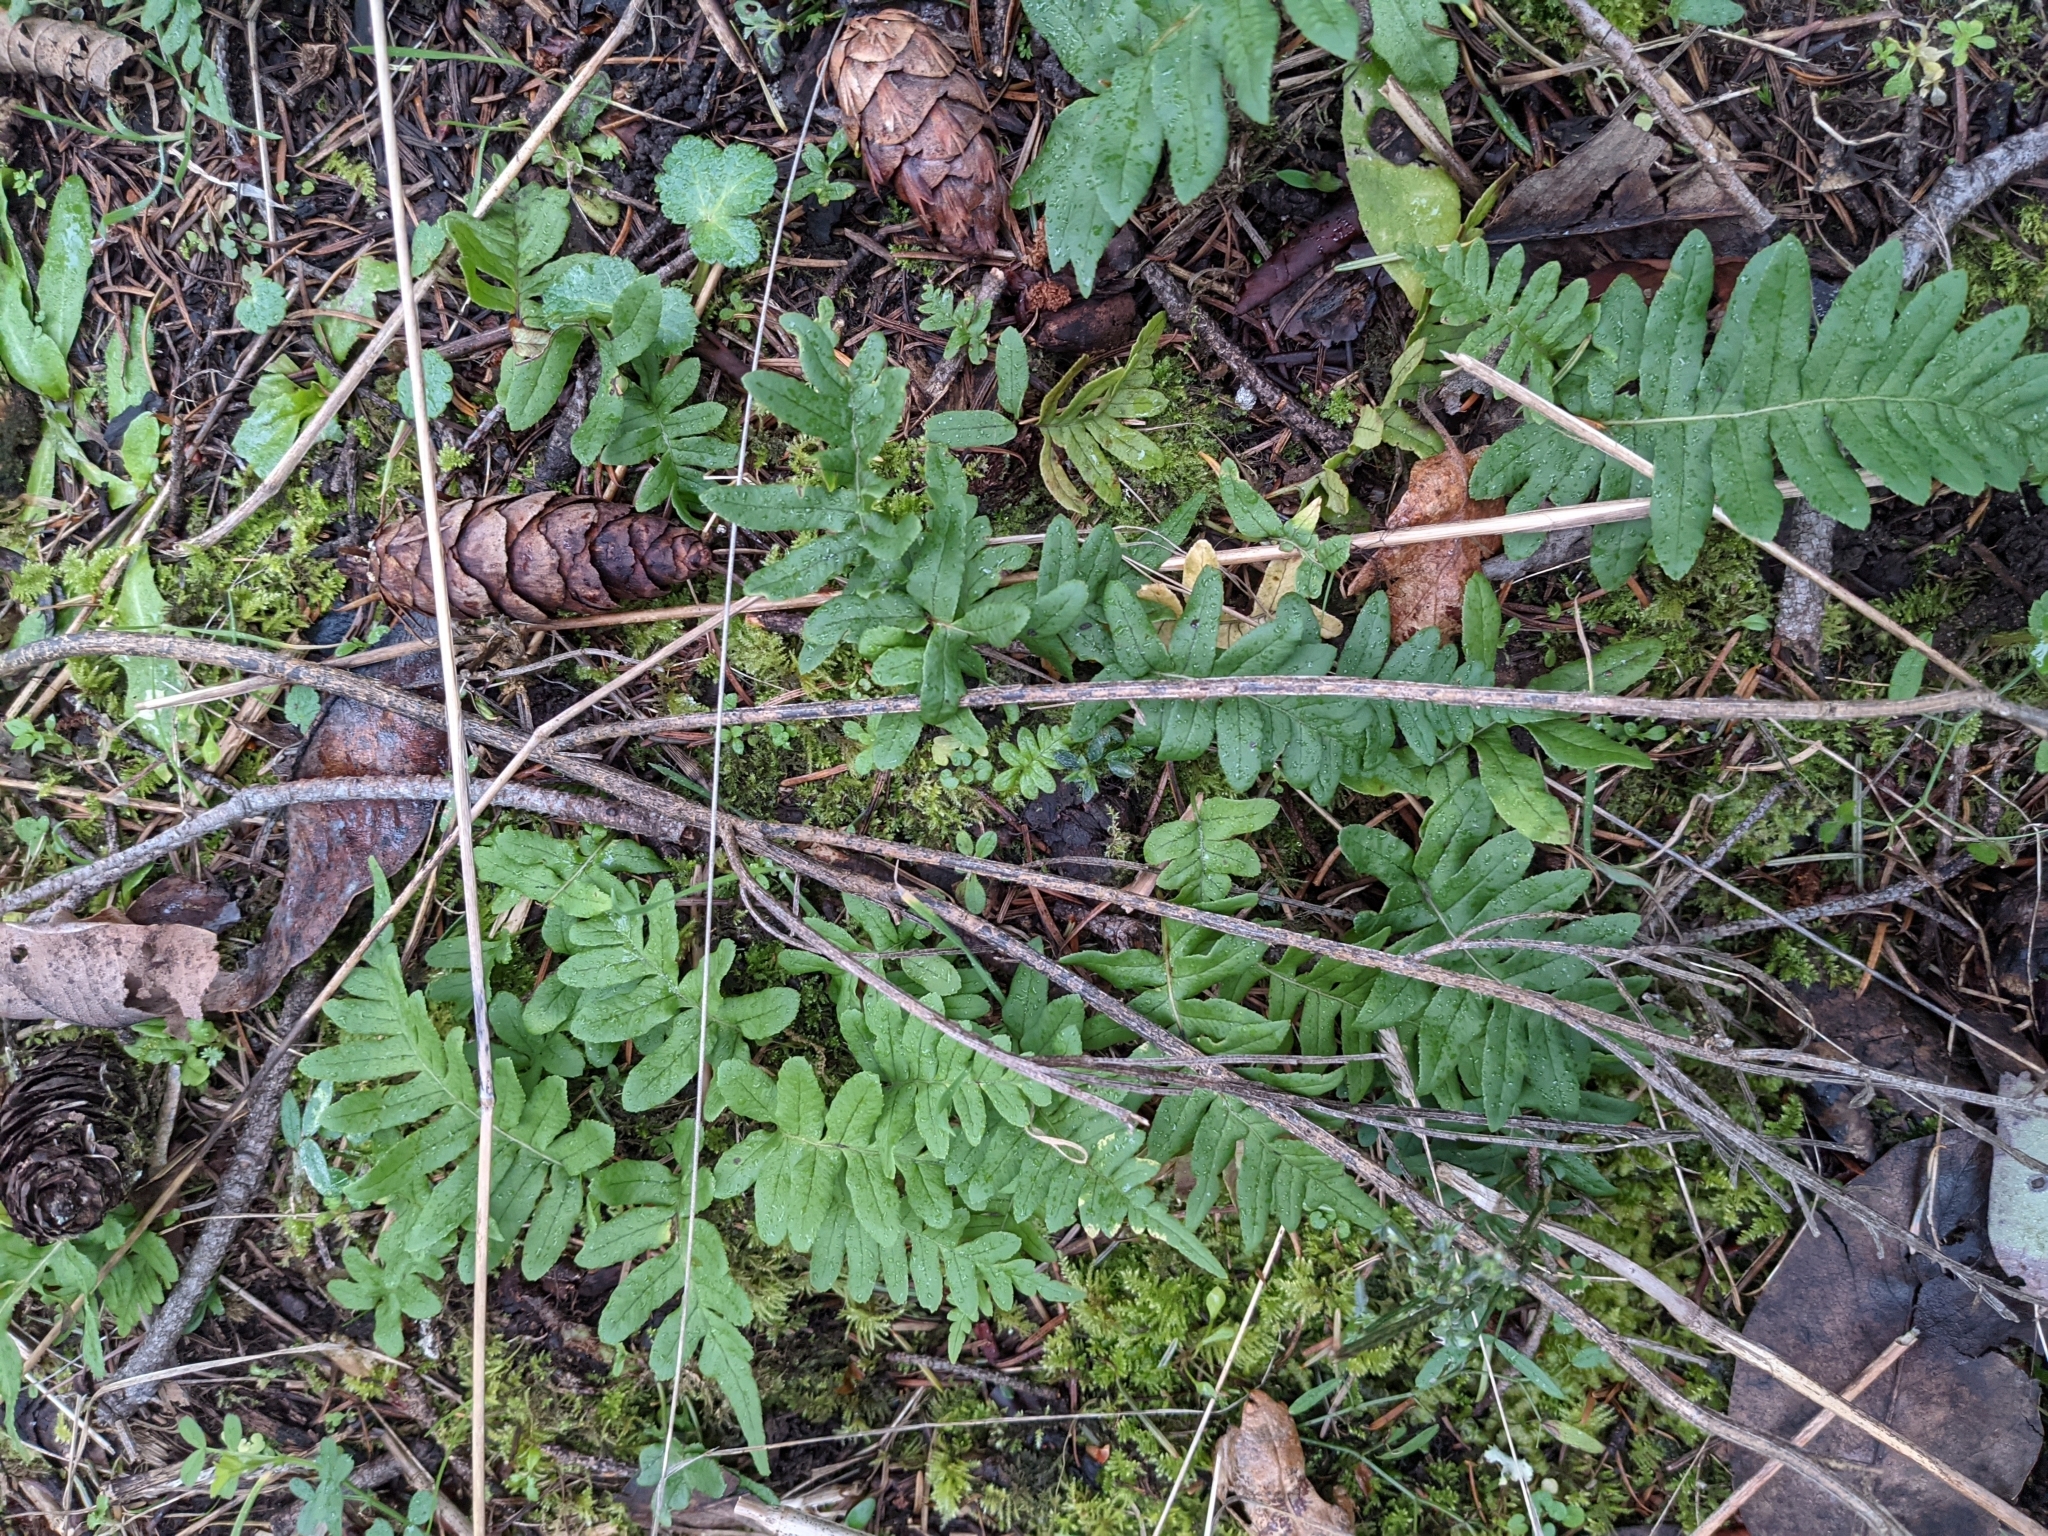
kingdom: Plantae
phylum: Tracheophyta
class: Polypodiopsida
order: Polypodiales
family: Polypodiaceae
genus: Polypodium
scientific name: Polypodium glycyrrhiza
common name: Licorice fern
